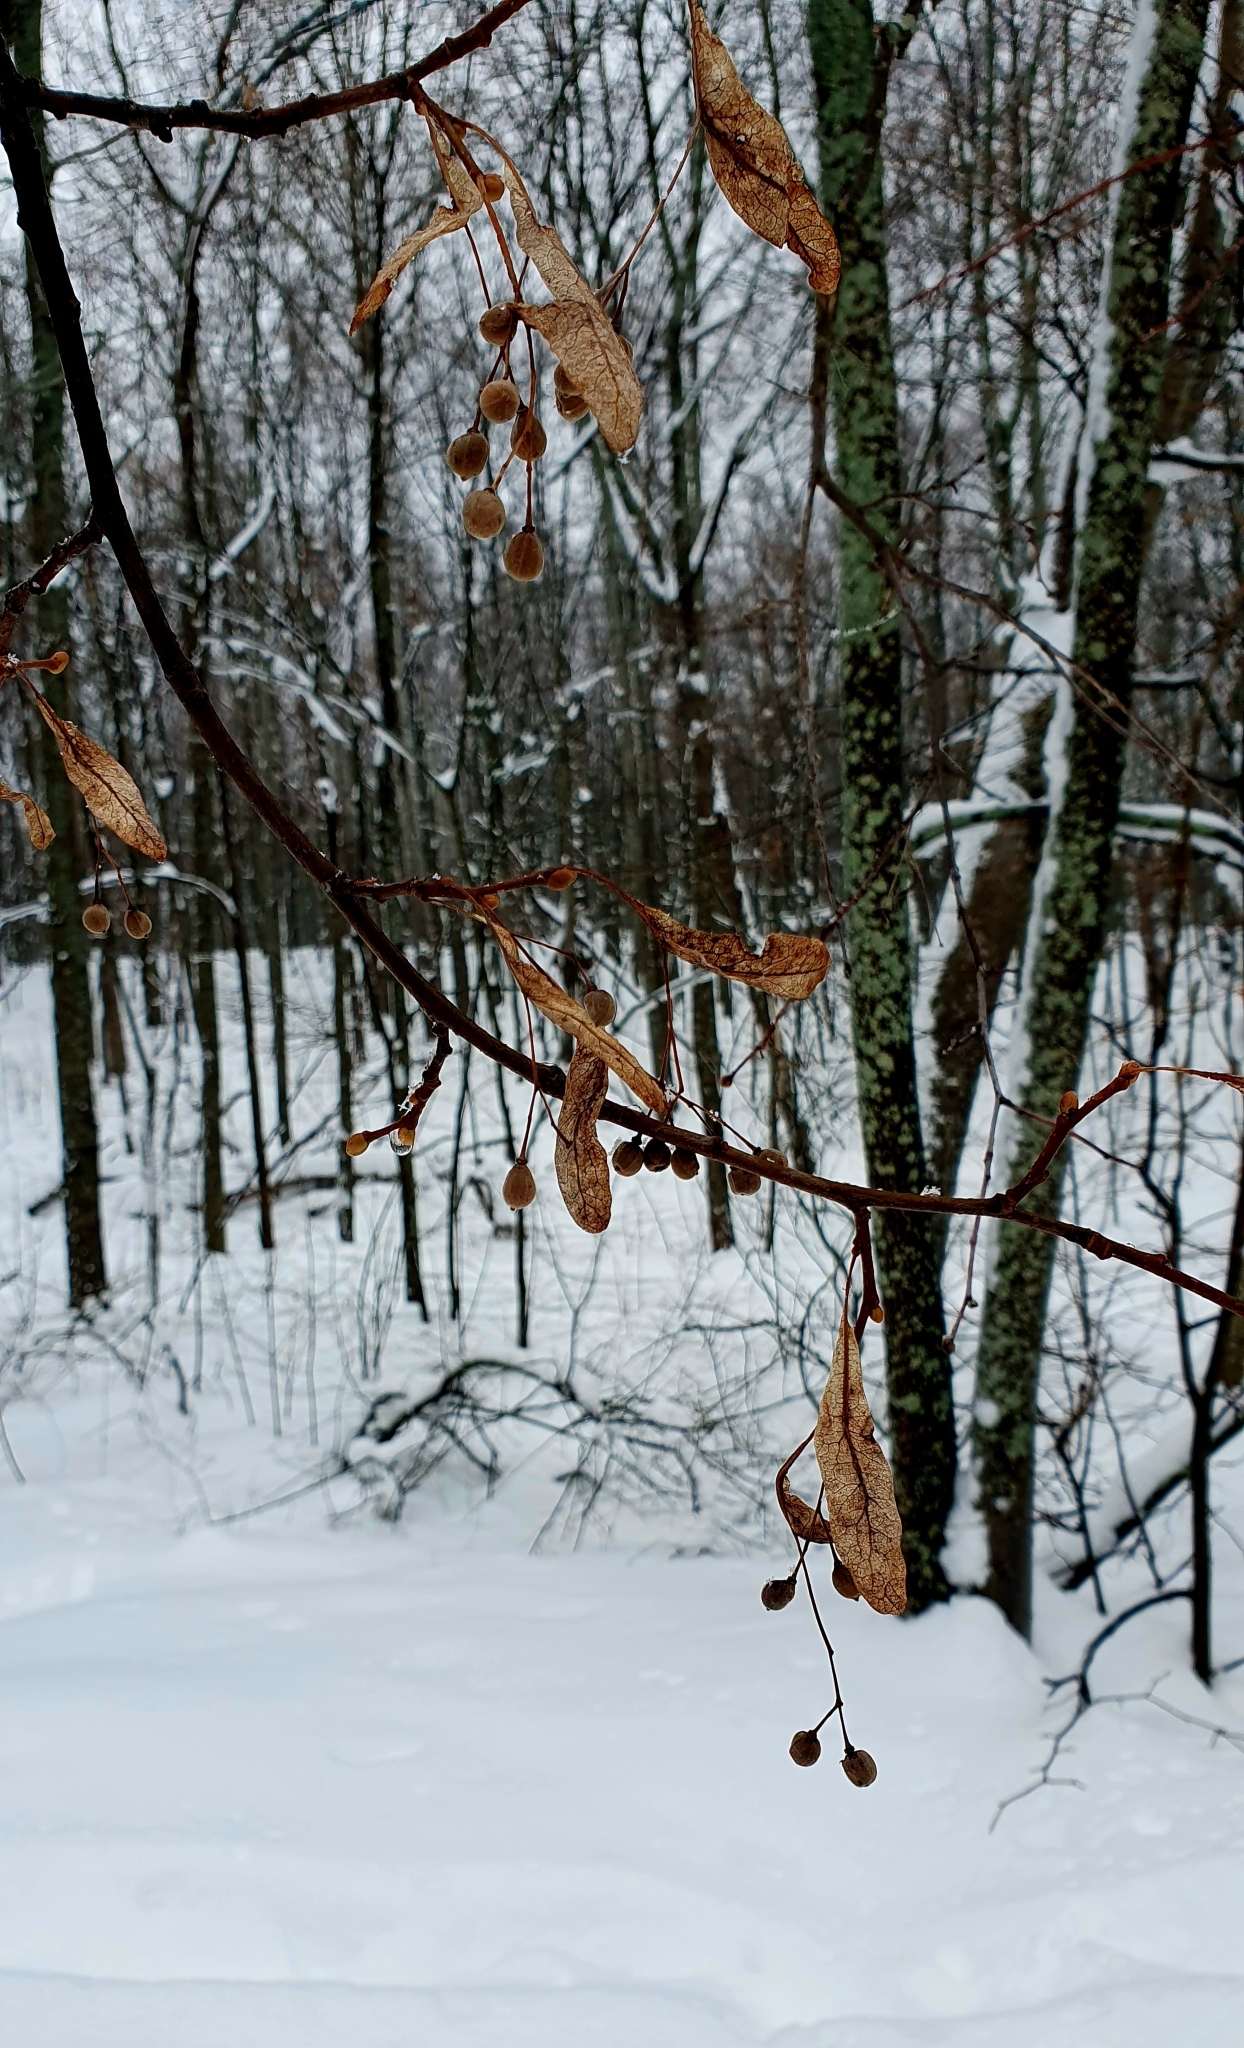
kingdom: Plantae
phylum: Tracheophyta
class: Magnoliopsida
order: Malvales
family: Malvaceae
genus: Tilia
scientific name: Tilia cordata
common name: Small-leaved lime
